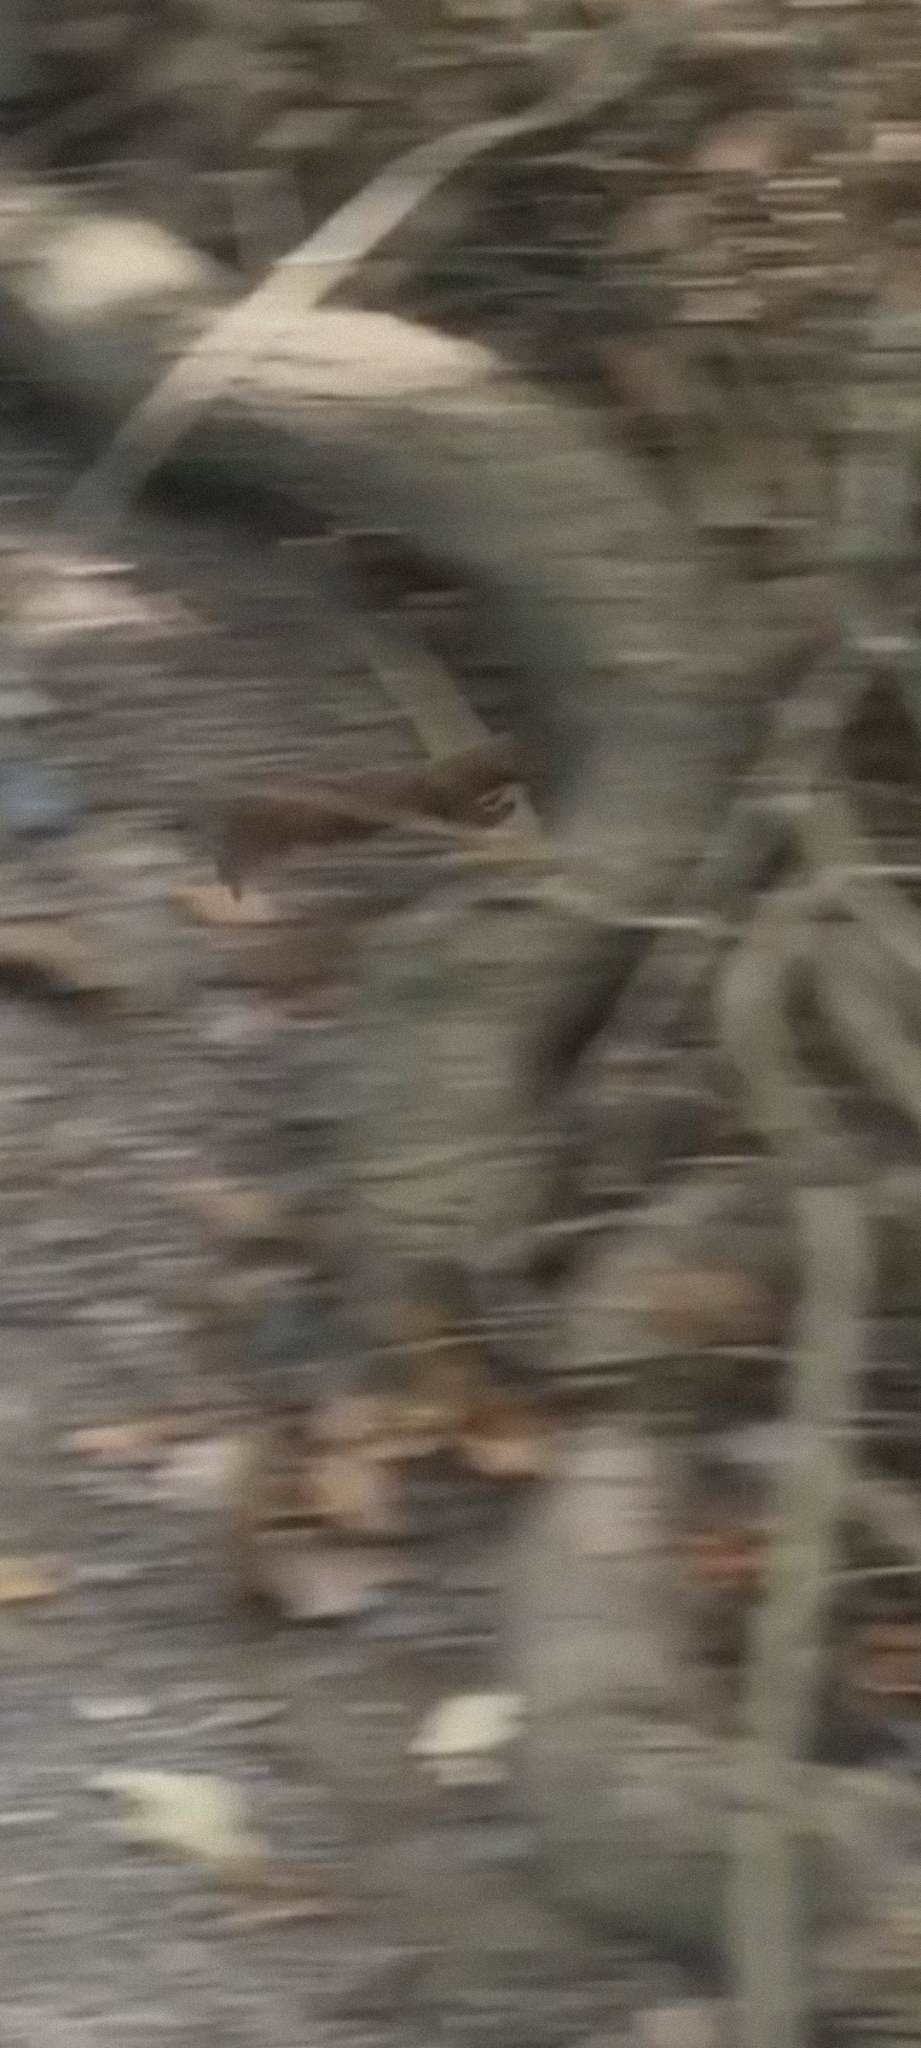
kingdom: Animalia
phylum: Chordata
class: Mammalia
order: Carnivora
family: Mustelidae
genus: Mustela
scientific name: Mustela nivalis
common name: Least weasel
